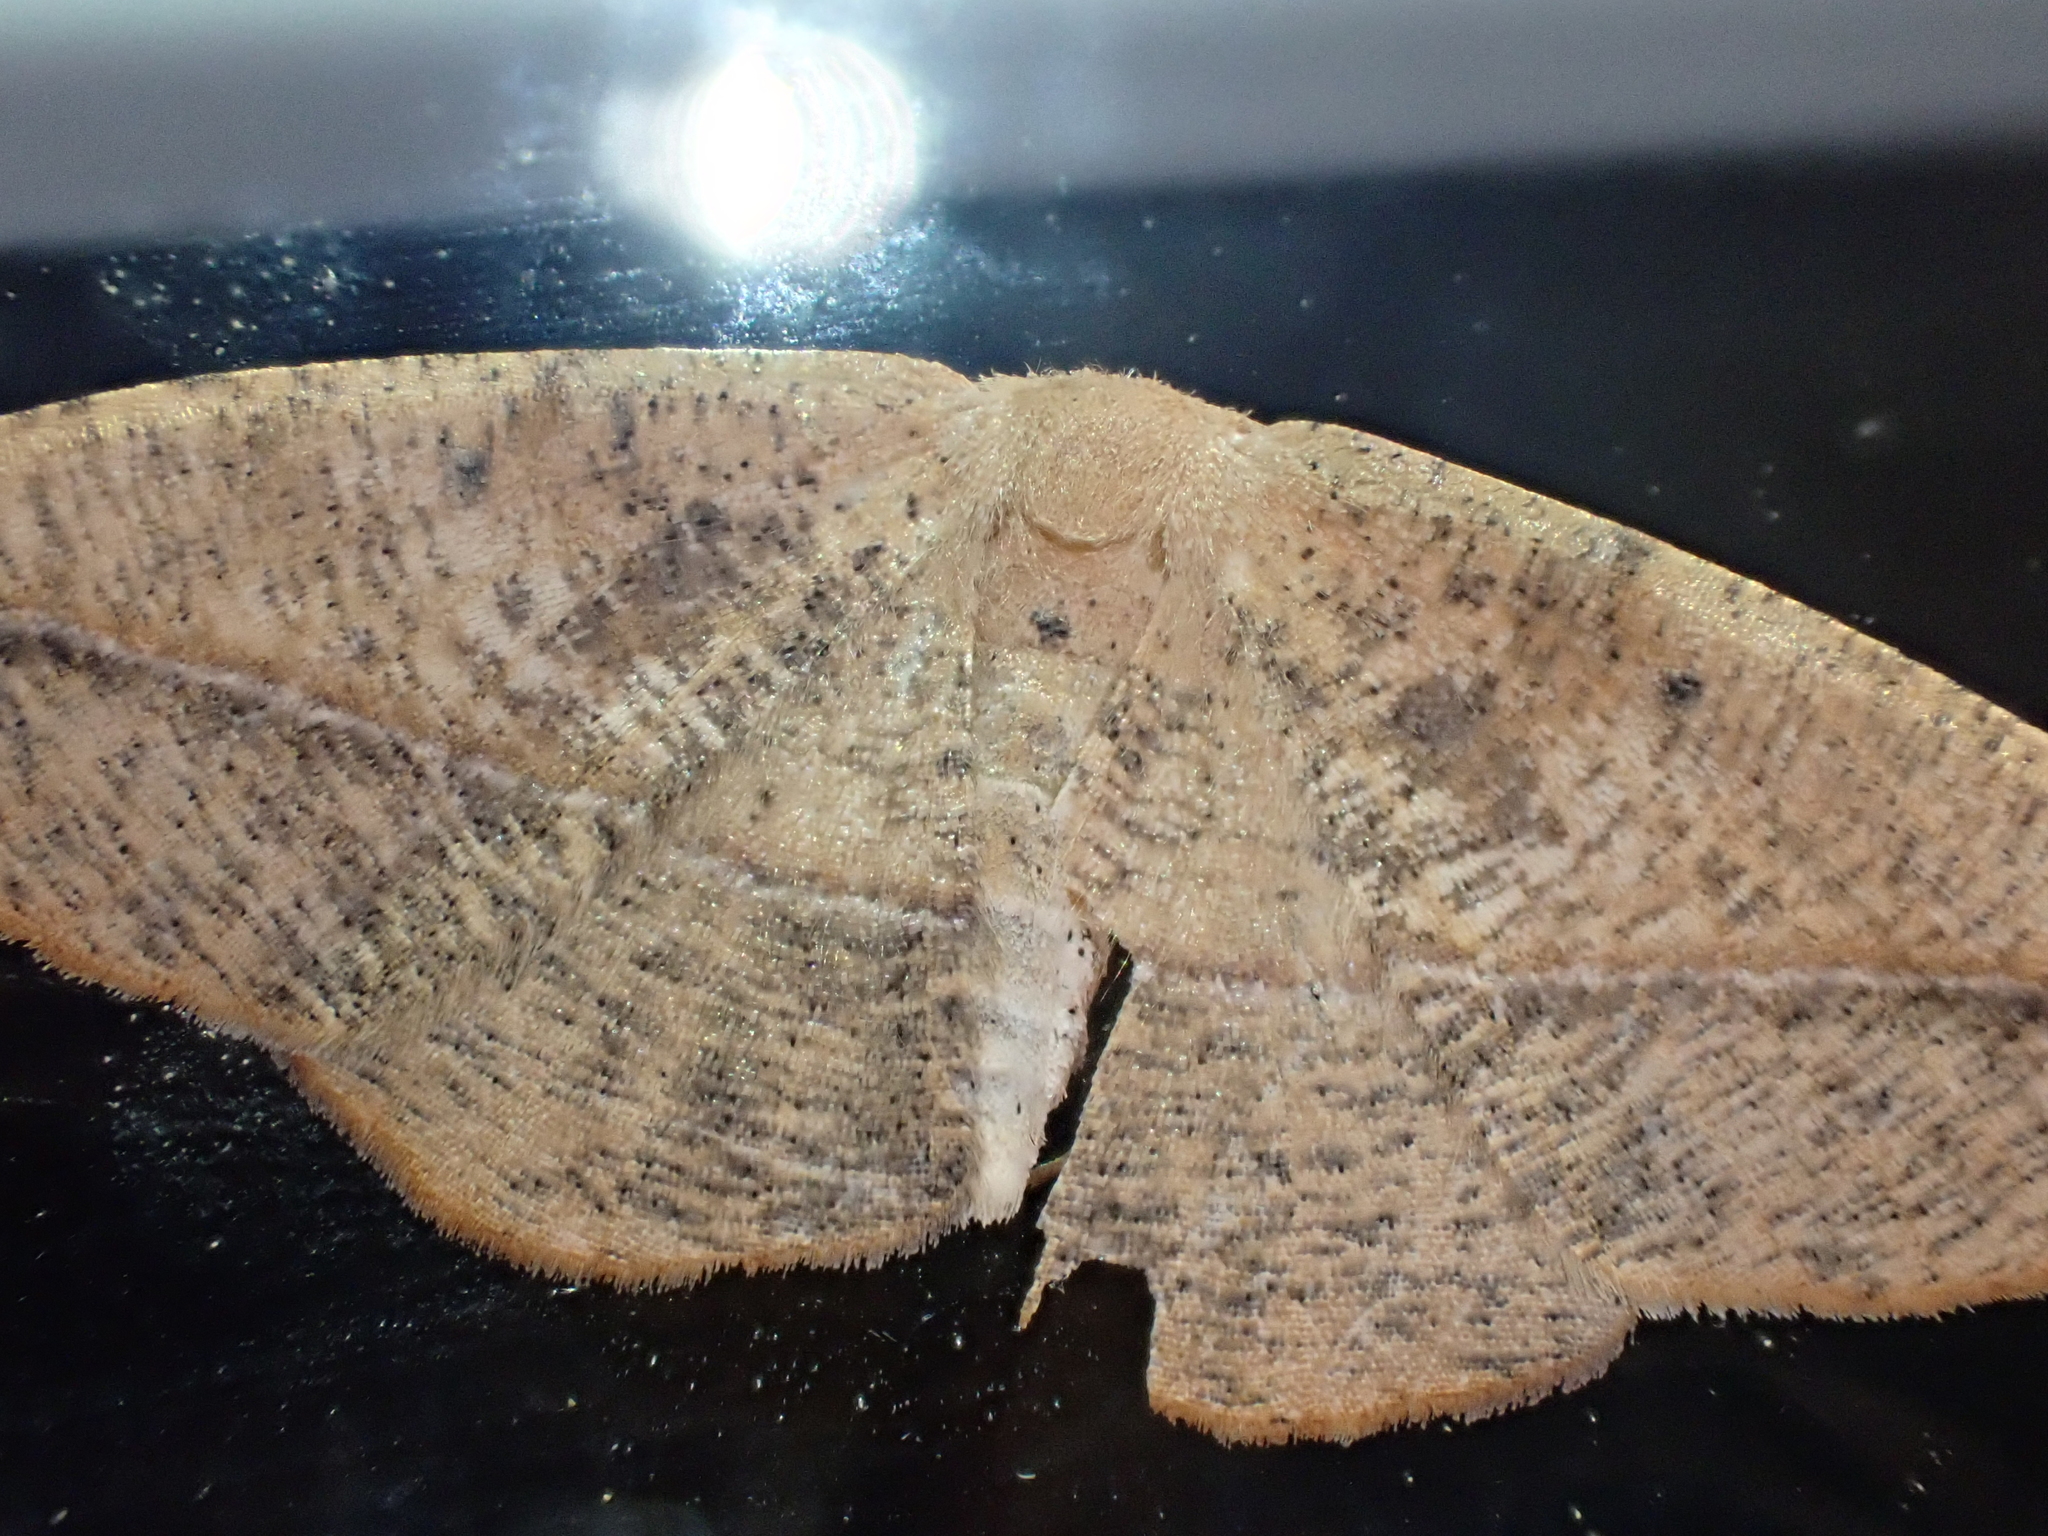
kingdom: Animalia
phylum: Arthropoda
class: Insecta
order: Lepidoptera
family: Geometridae
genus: Patalene
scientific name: Patalene olyzonaria
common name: Juniper geometer moth
